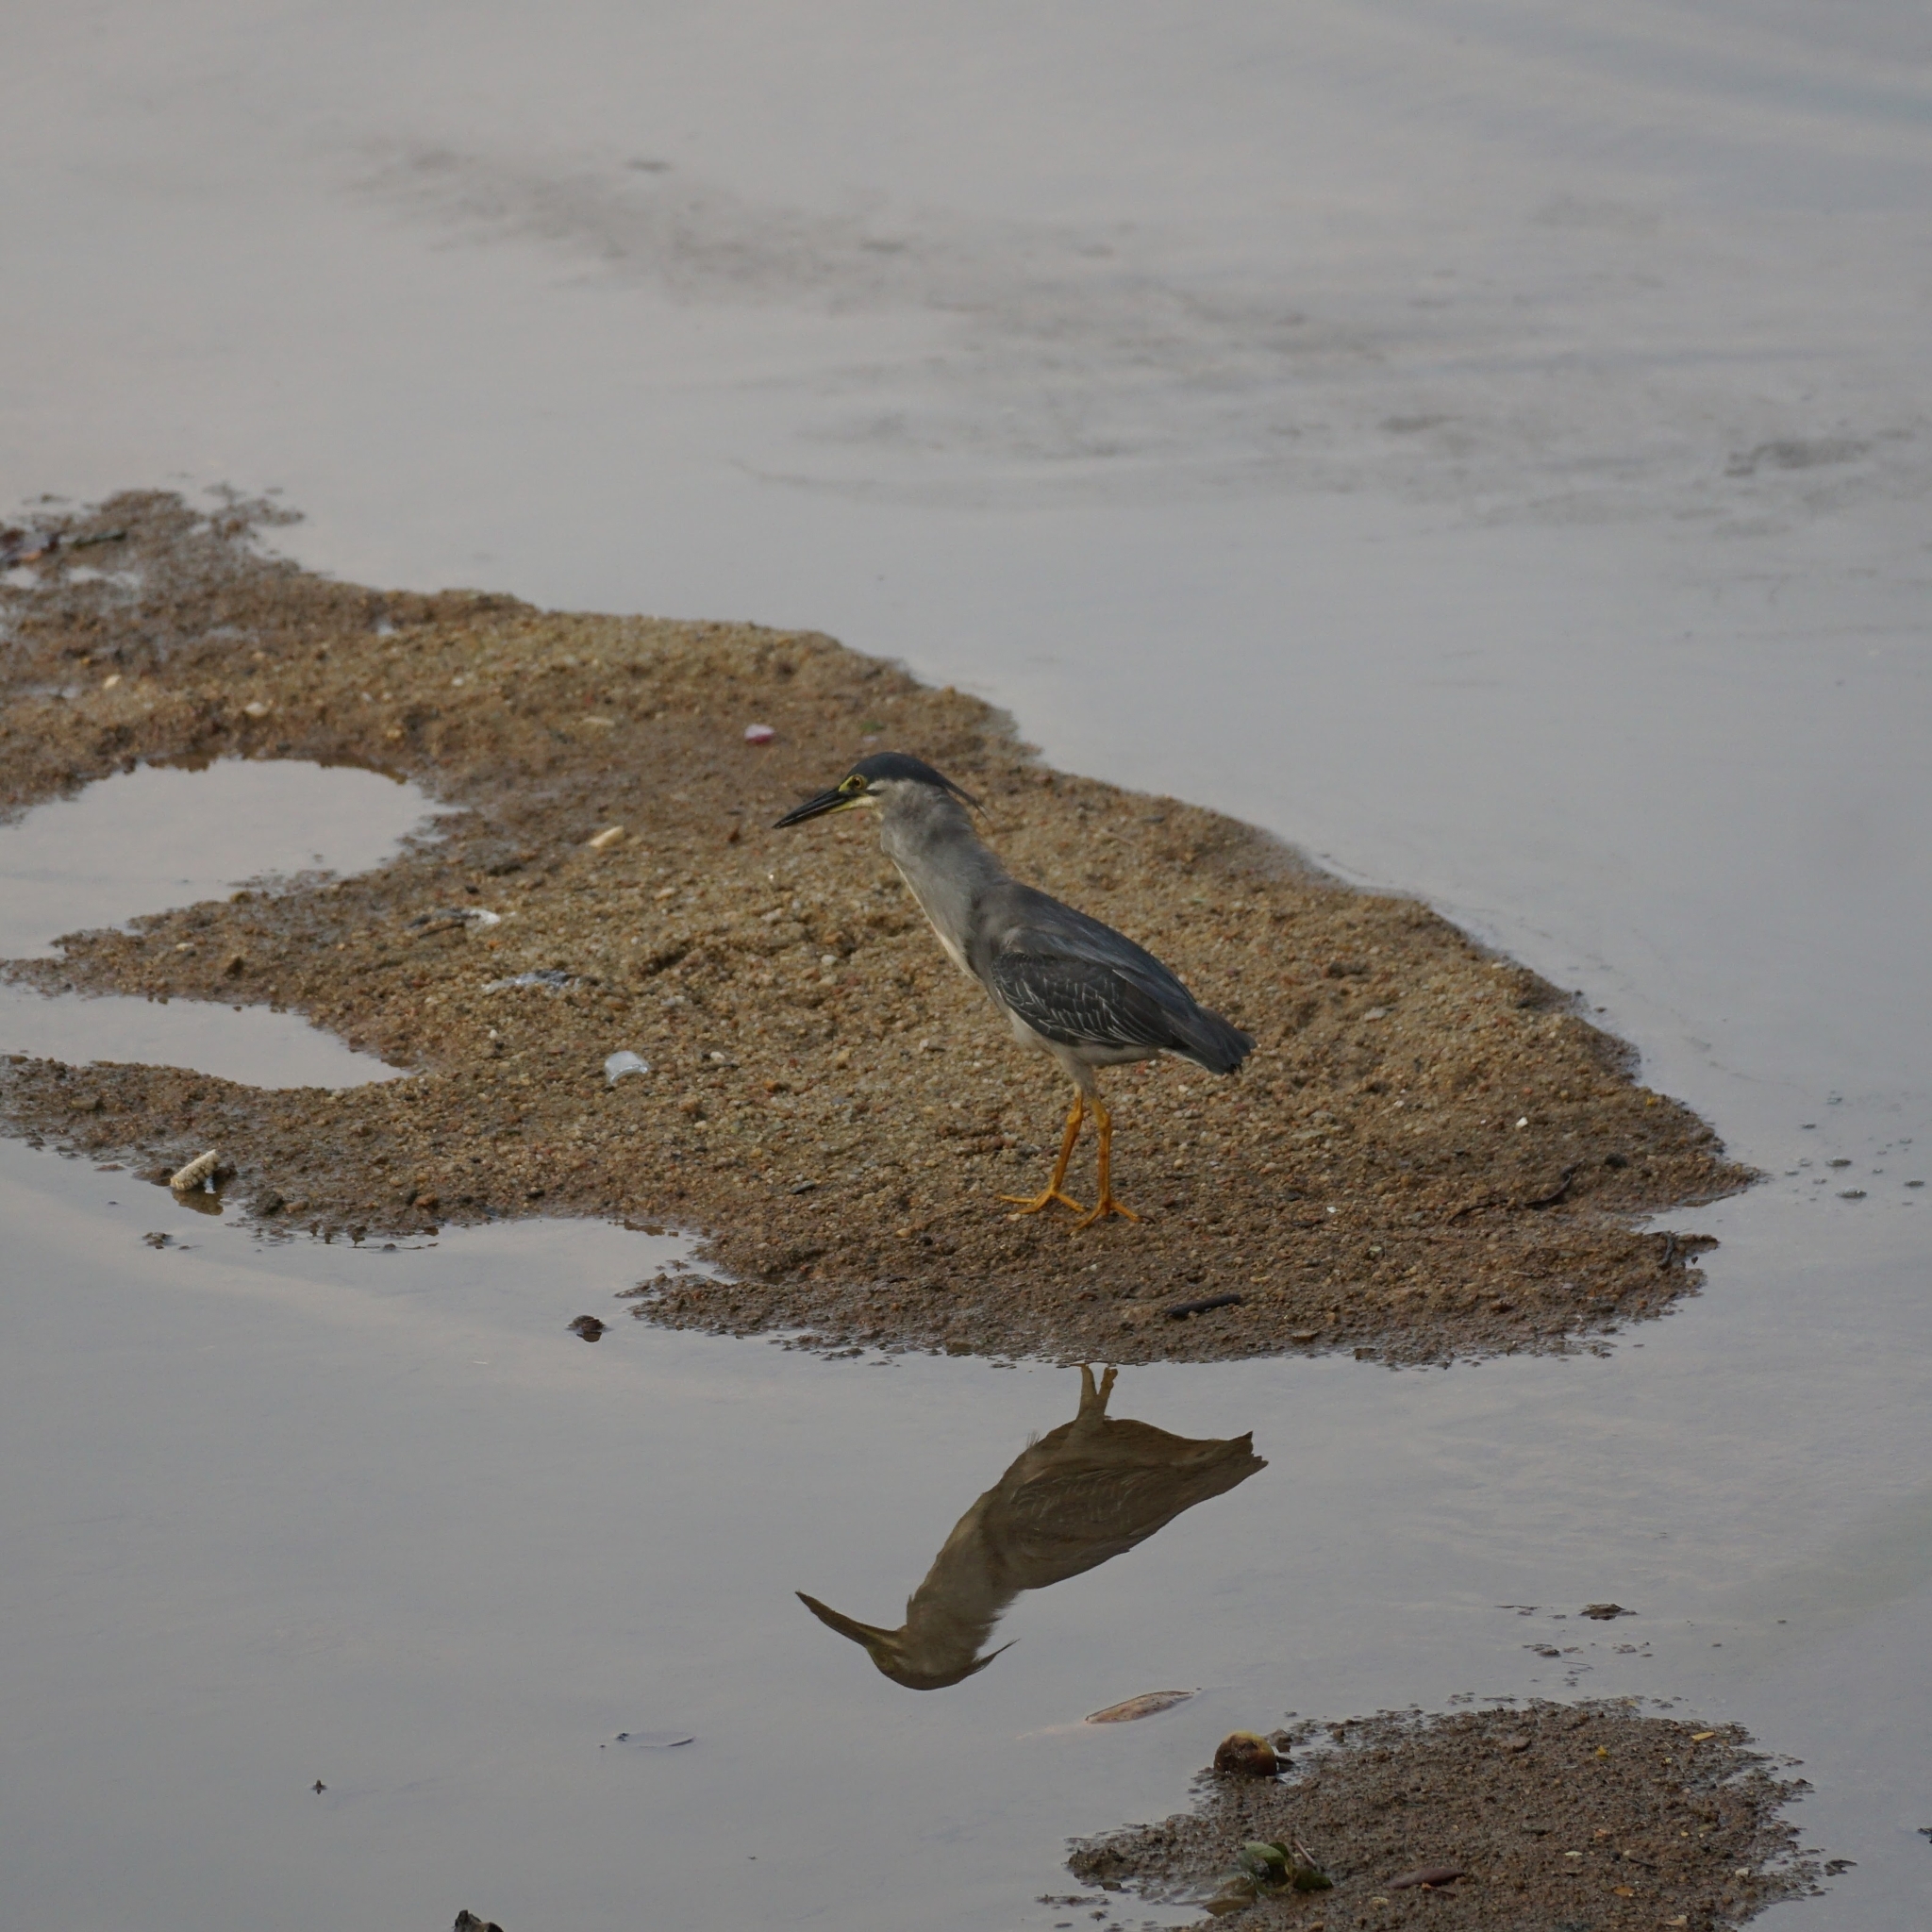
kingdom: Animalia
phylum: Chordata
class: Aves
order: Pelecaniformes
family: Ardeidae
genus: Butorides
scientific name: Butorides striata
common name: Striated heron
